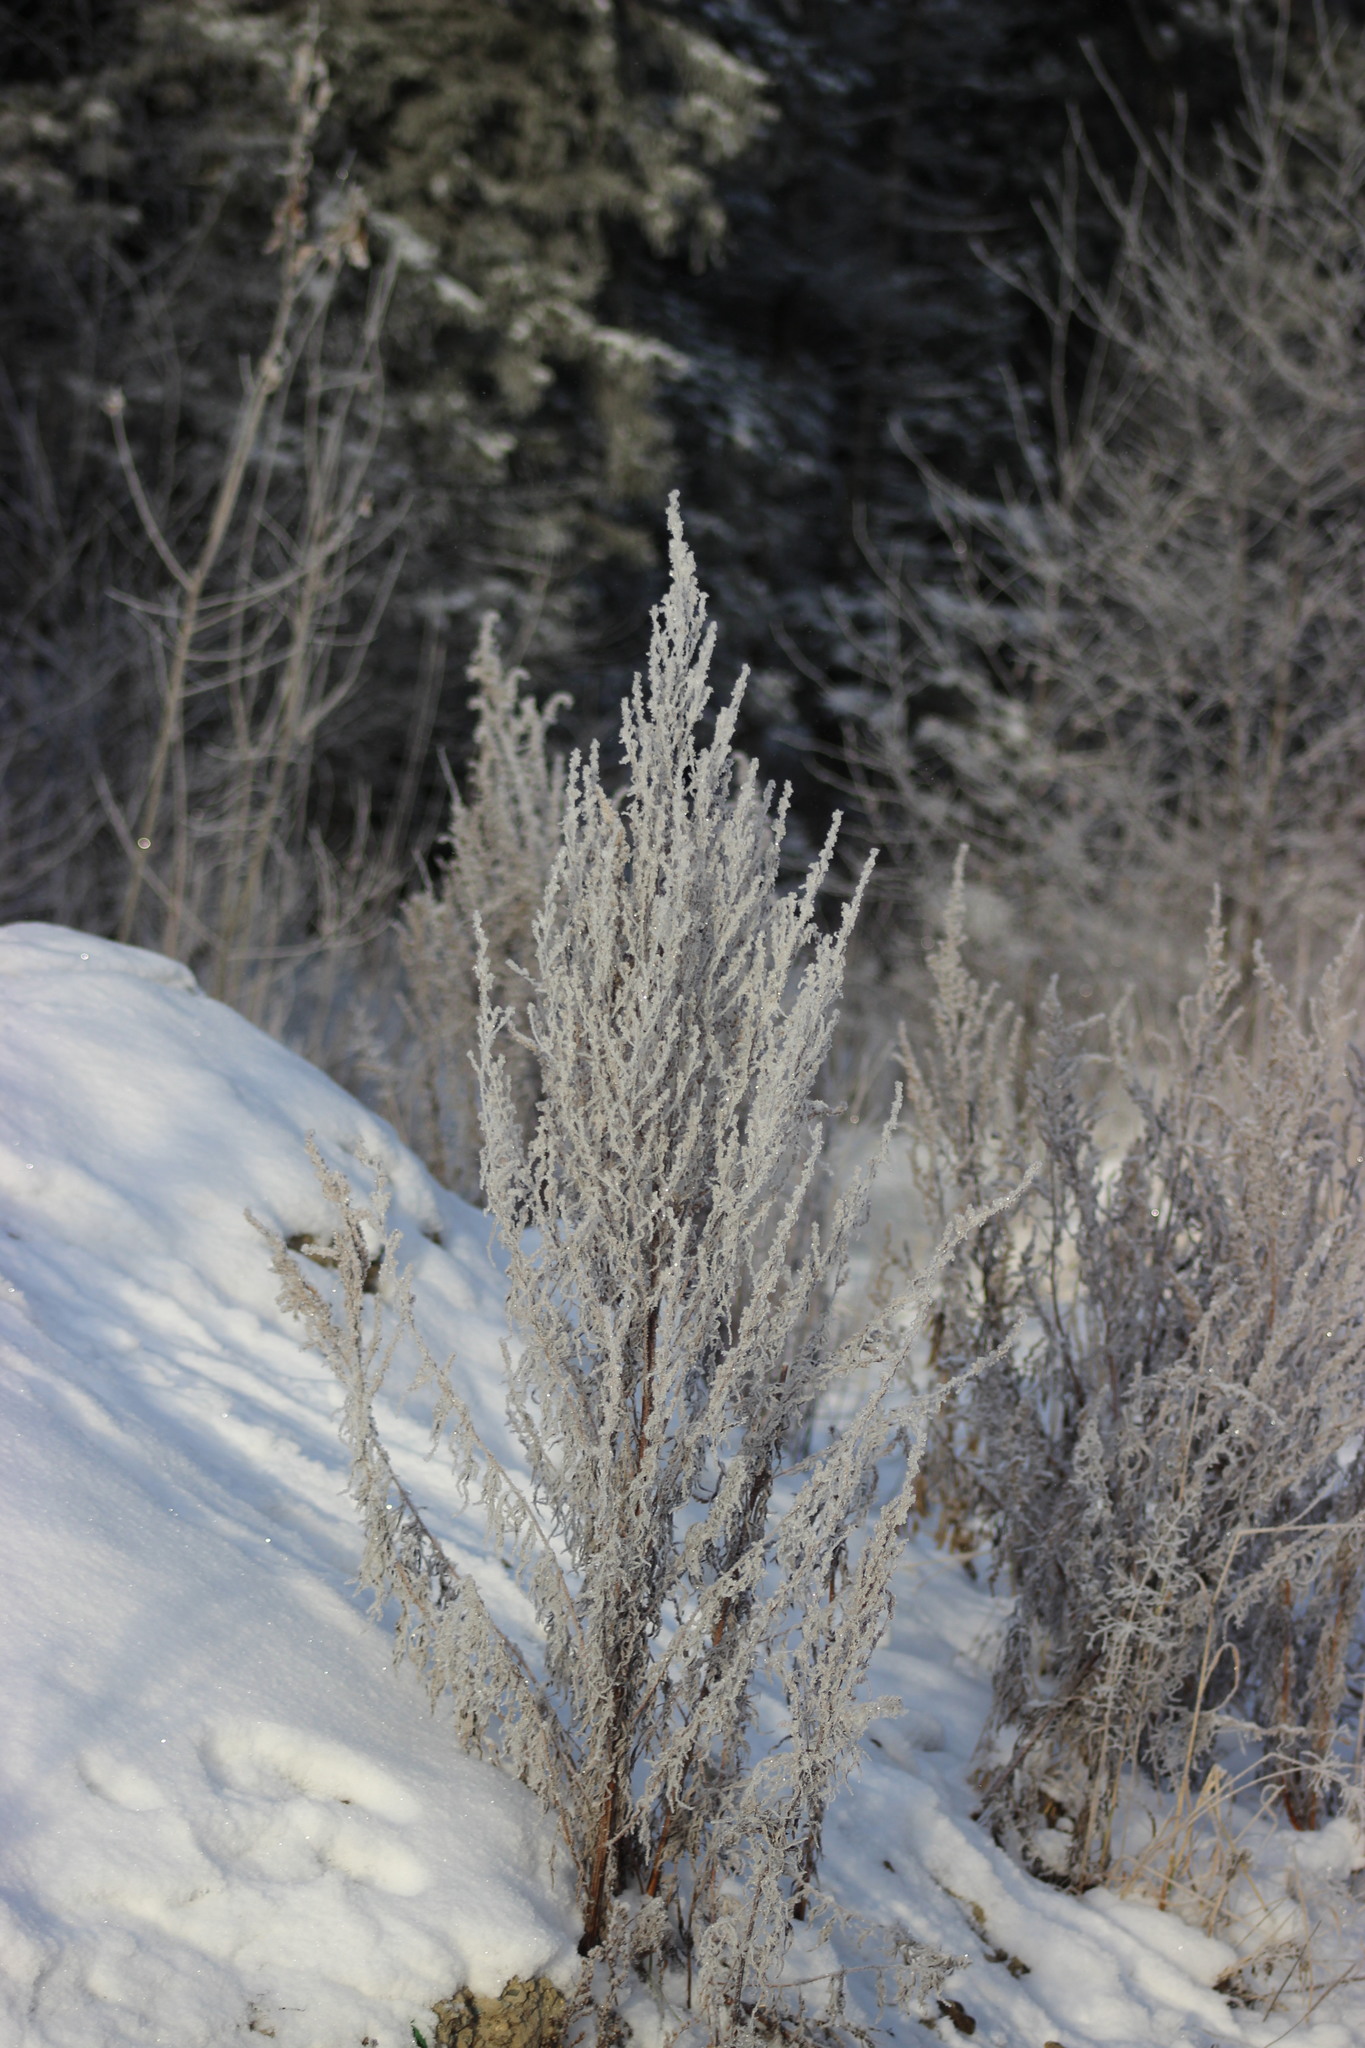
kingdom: Plantae
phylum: Tracheophyta
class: Magnoliopsida
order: Asterales
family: Asteraceae
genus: Artemisia
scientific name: Artemisia vulgaris
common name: Mugwort
